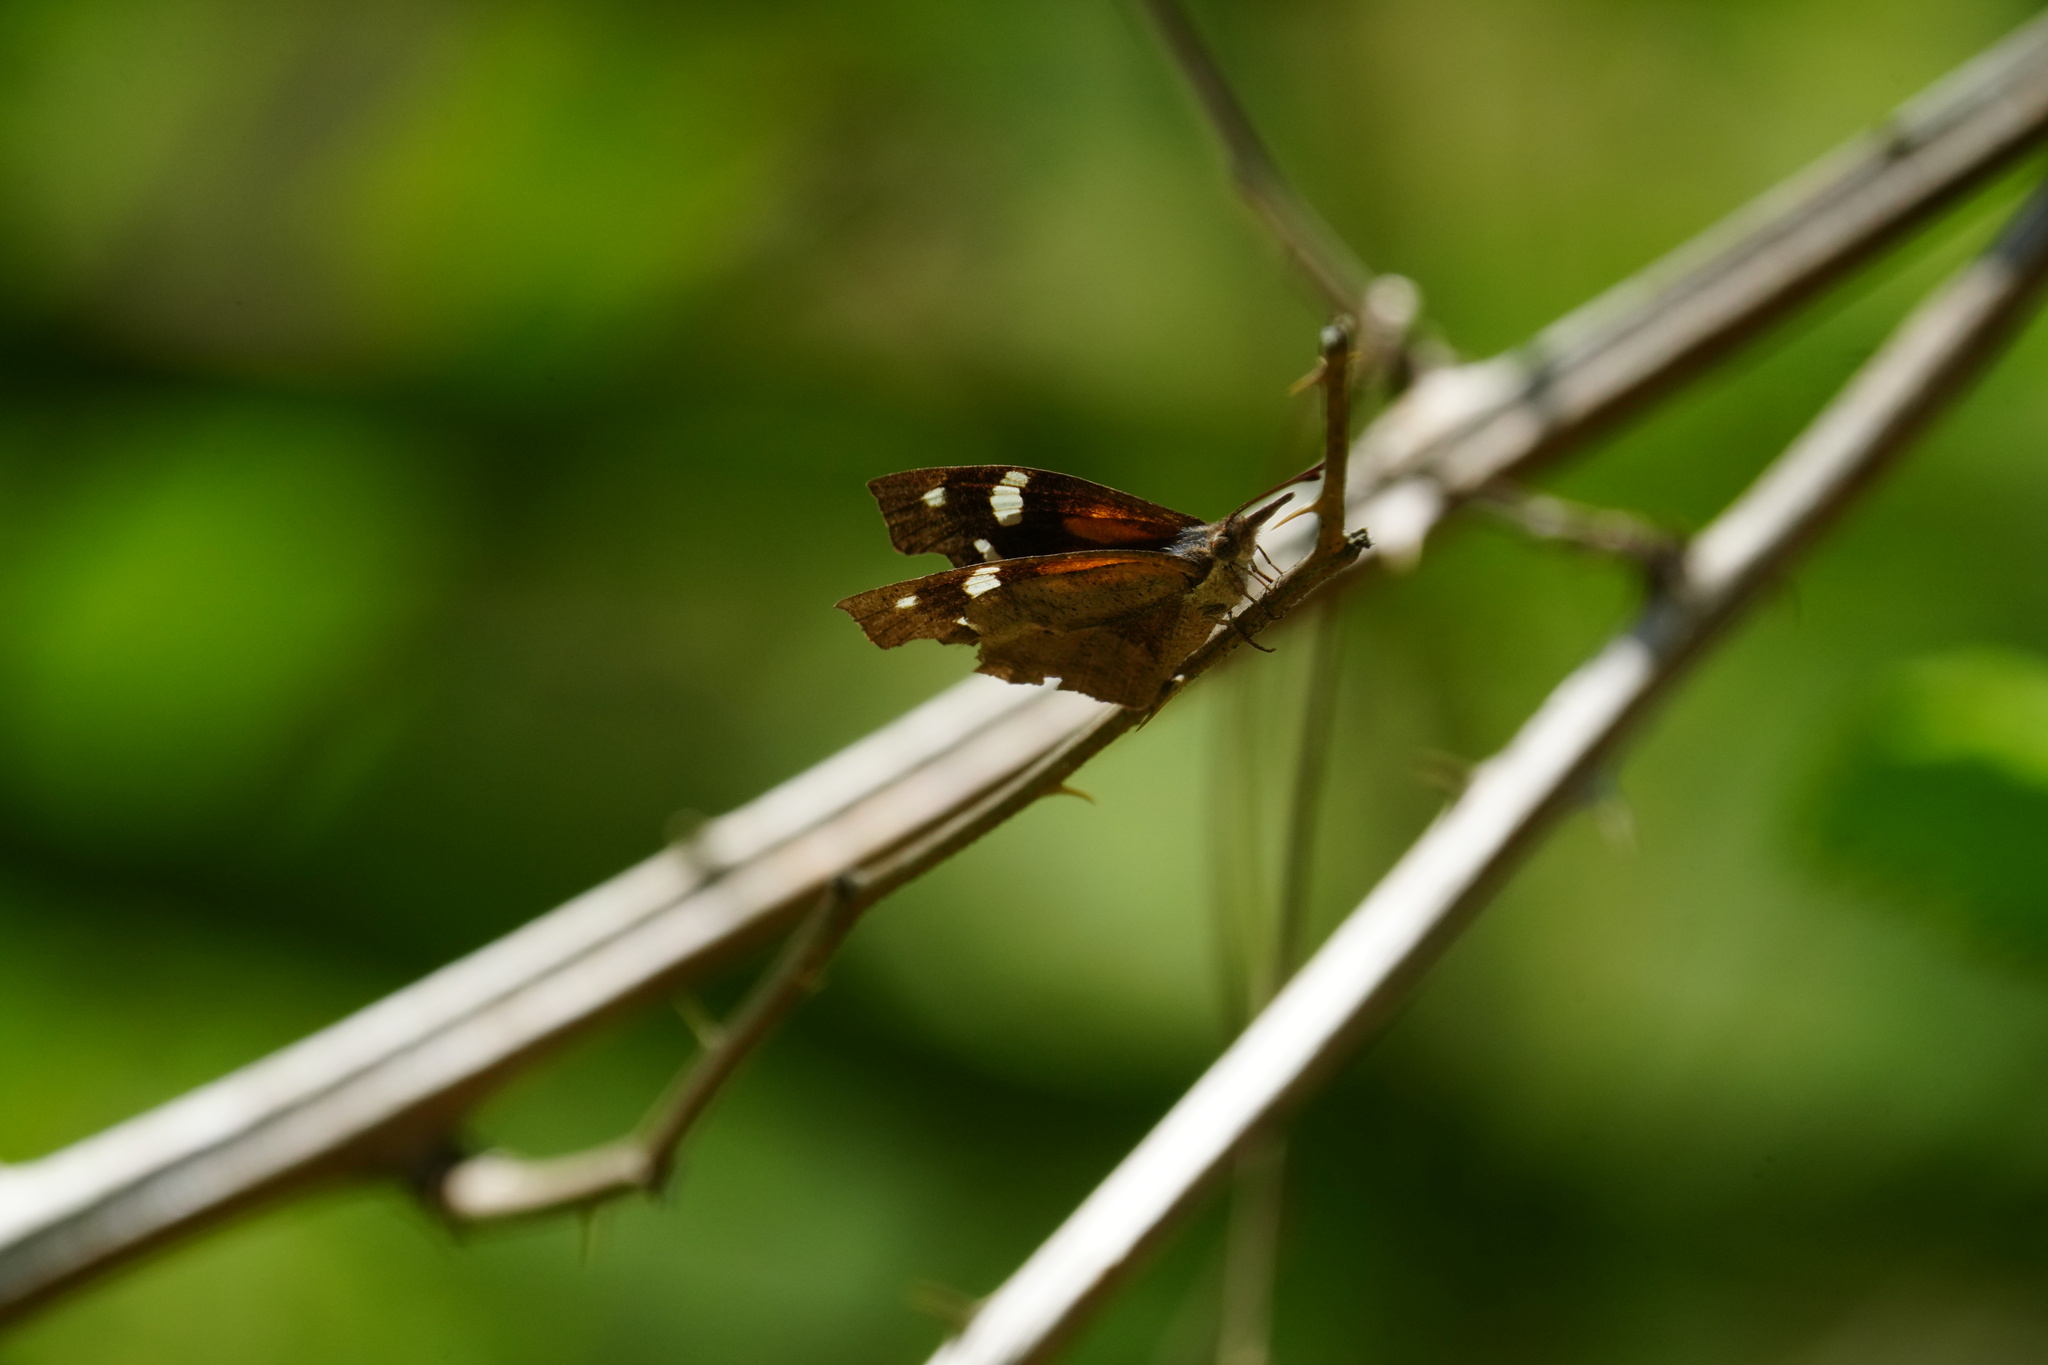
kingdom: Animalia
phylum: Arthropoda
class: Insecta
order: Lepidoptera
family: Nymphalidae
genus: Libytheana
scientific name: Libytheana carinenta
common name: American snout
